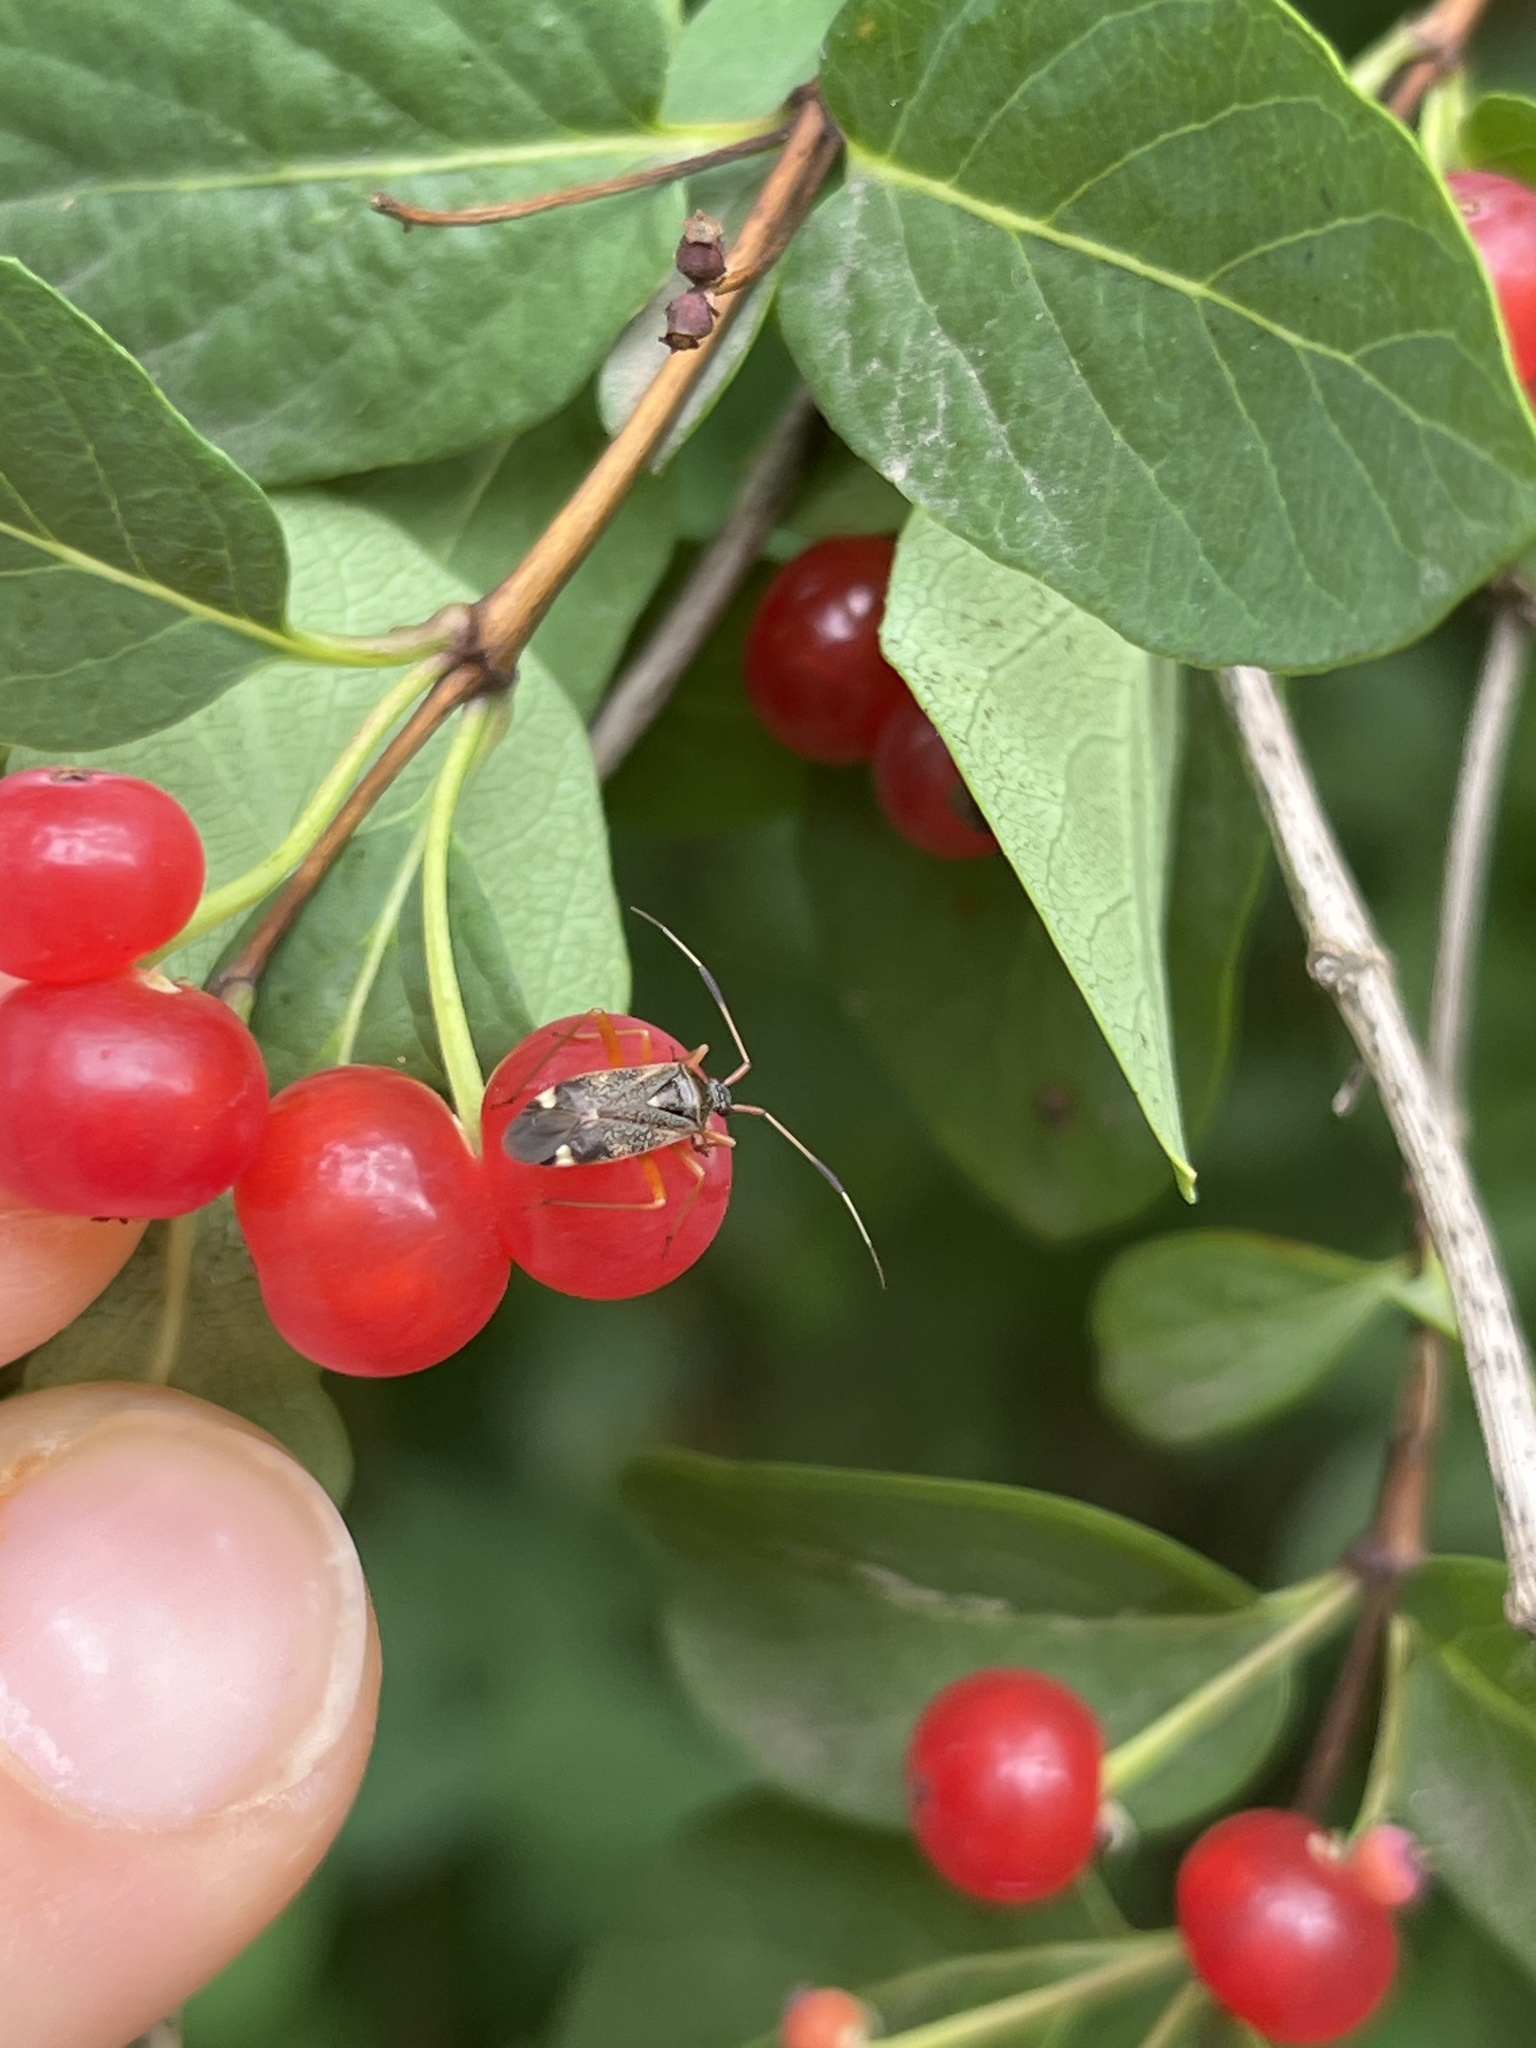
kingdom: Animalia
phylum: Arthropoda
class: Insecta
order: Hemiptera
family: Miridae
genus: Closterotomus
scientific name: Closterotomus biclavatus
